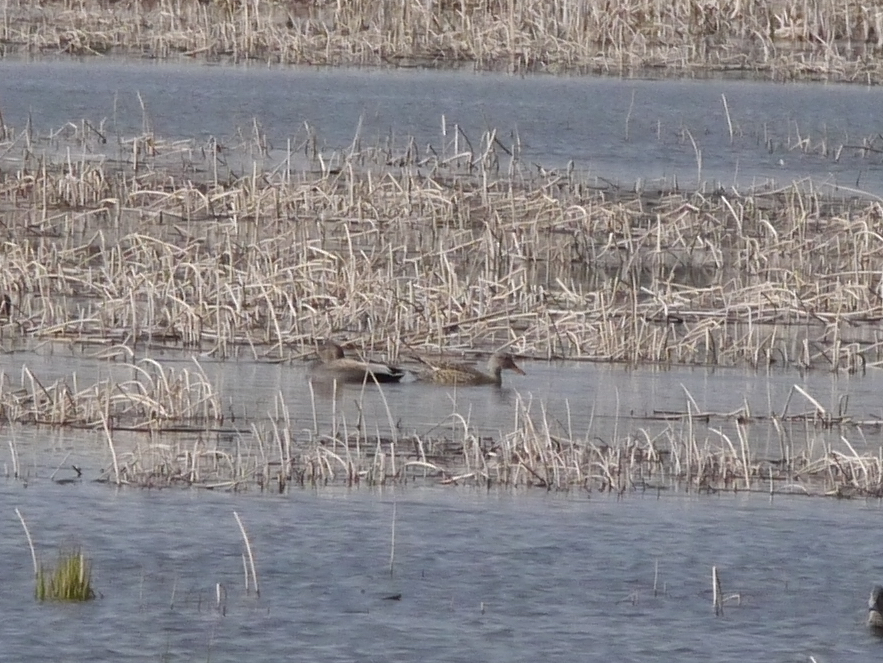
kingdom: Animalia
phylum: Chordata
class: Aves
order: Anseriformes
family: Anatidae
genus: Mareca
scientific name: Mareca strepera
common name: Gadwall
